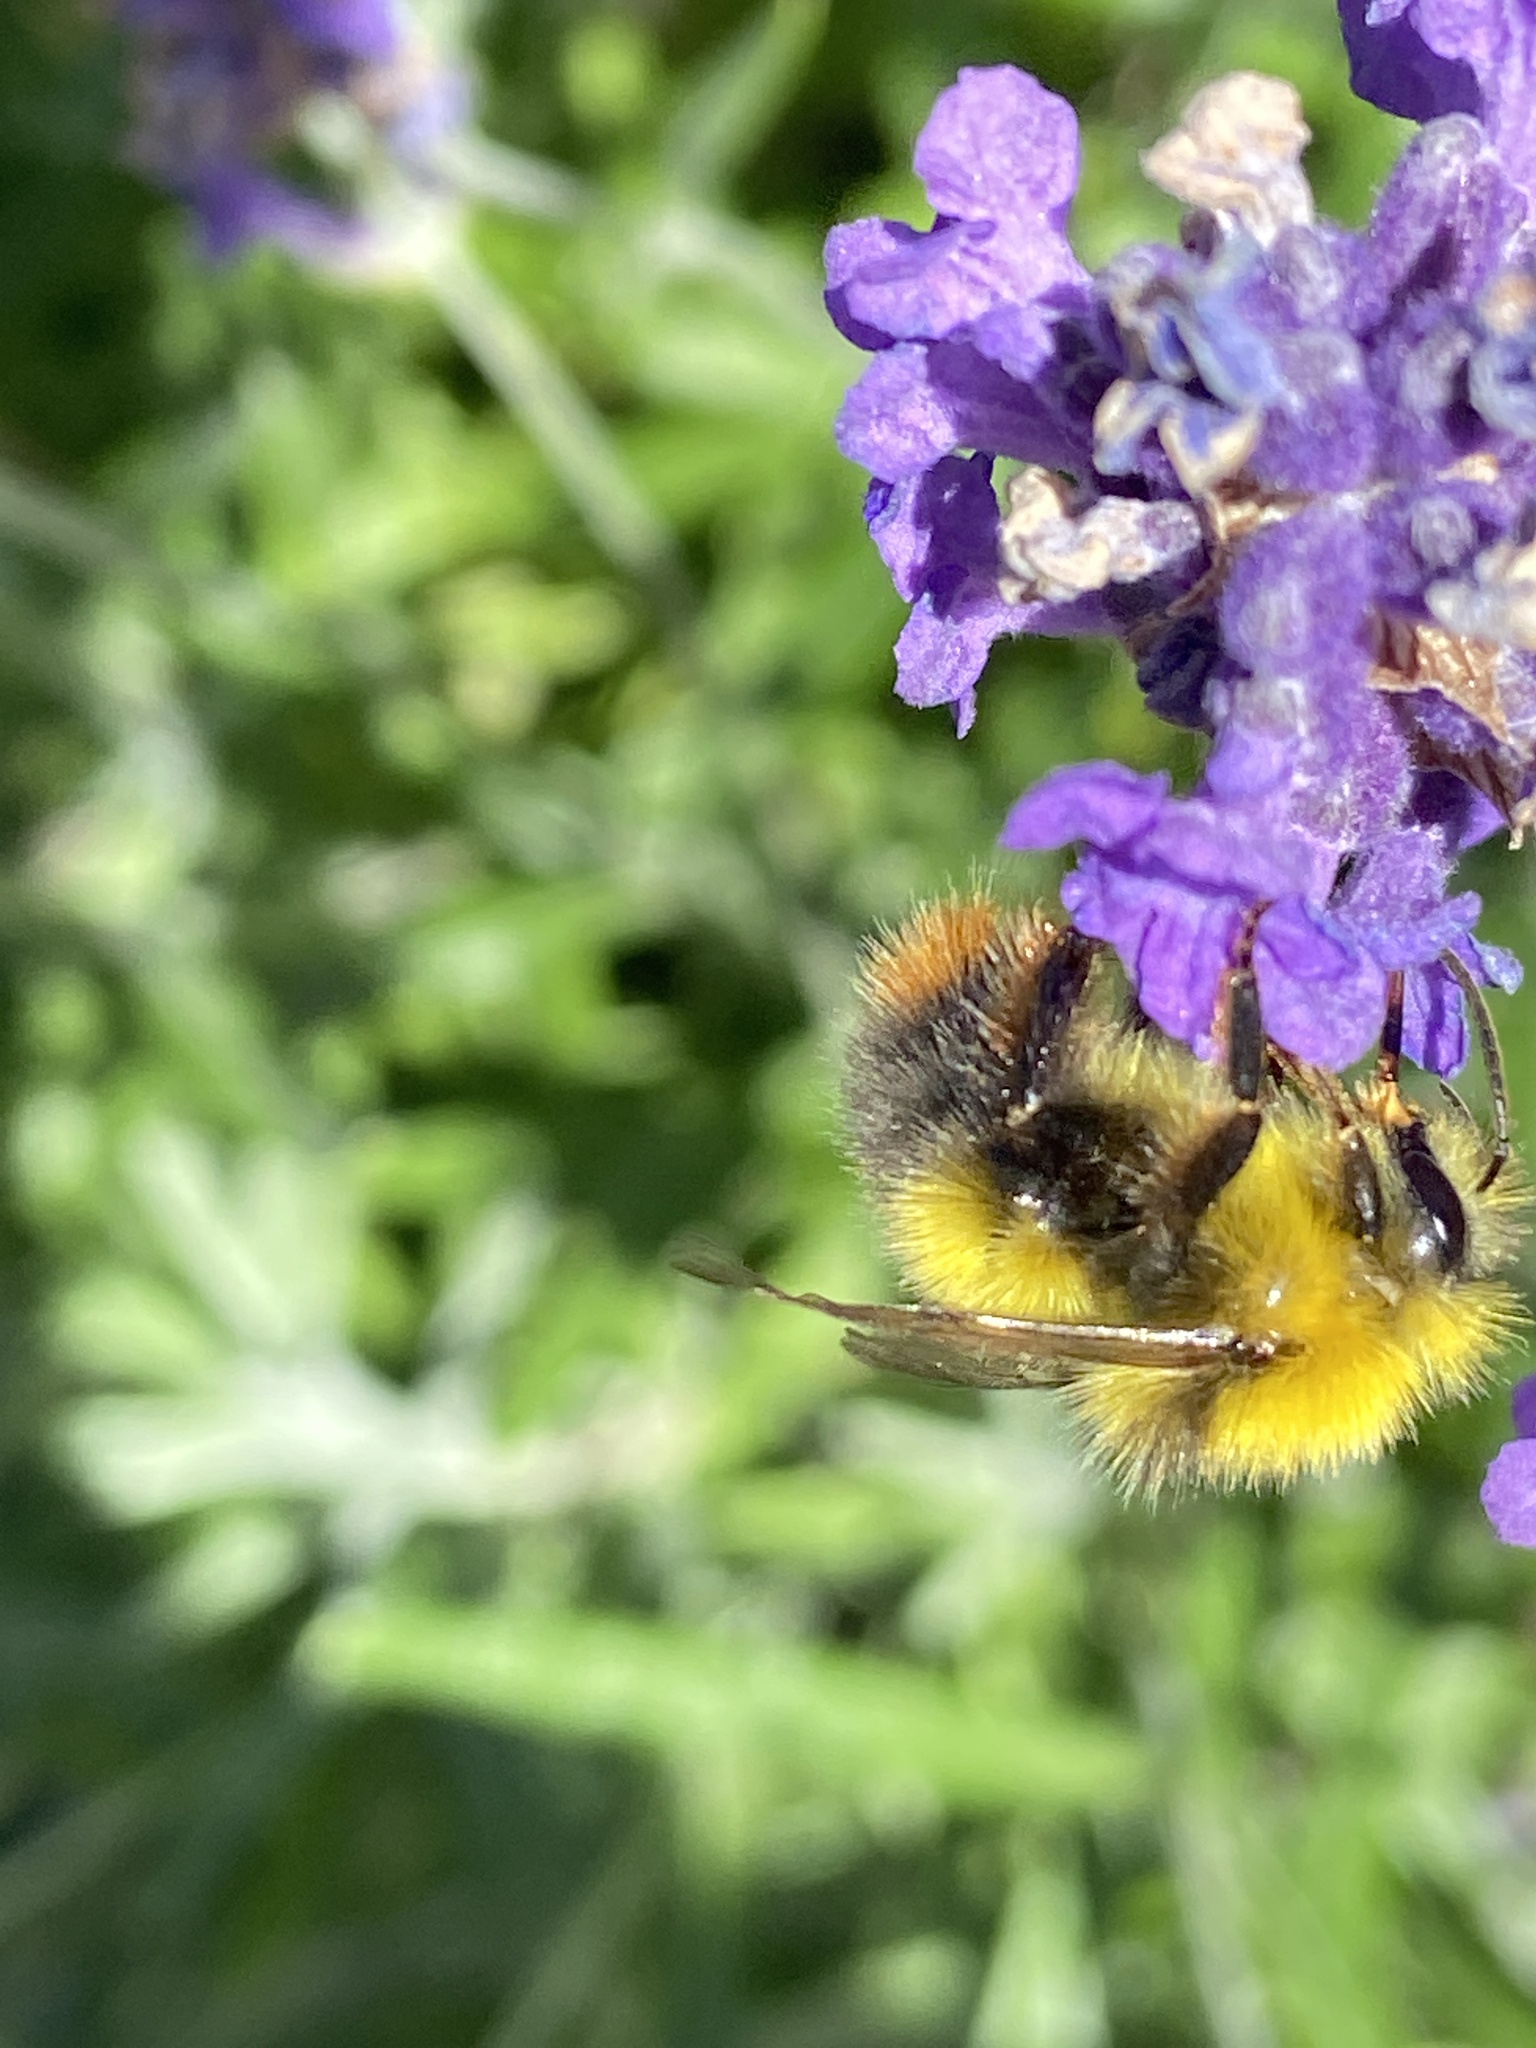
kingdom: Animalia
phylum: Arthropoda
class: Insecta
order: Hymenoptera
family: Apidae
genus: Bombus
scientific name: Bombus pratorum
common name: Early humble-bee
